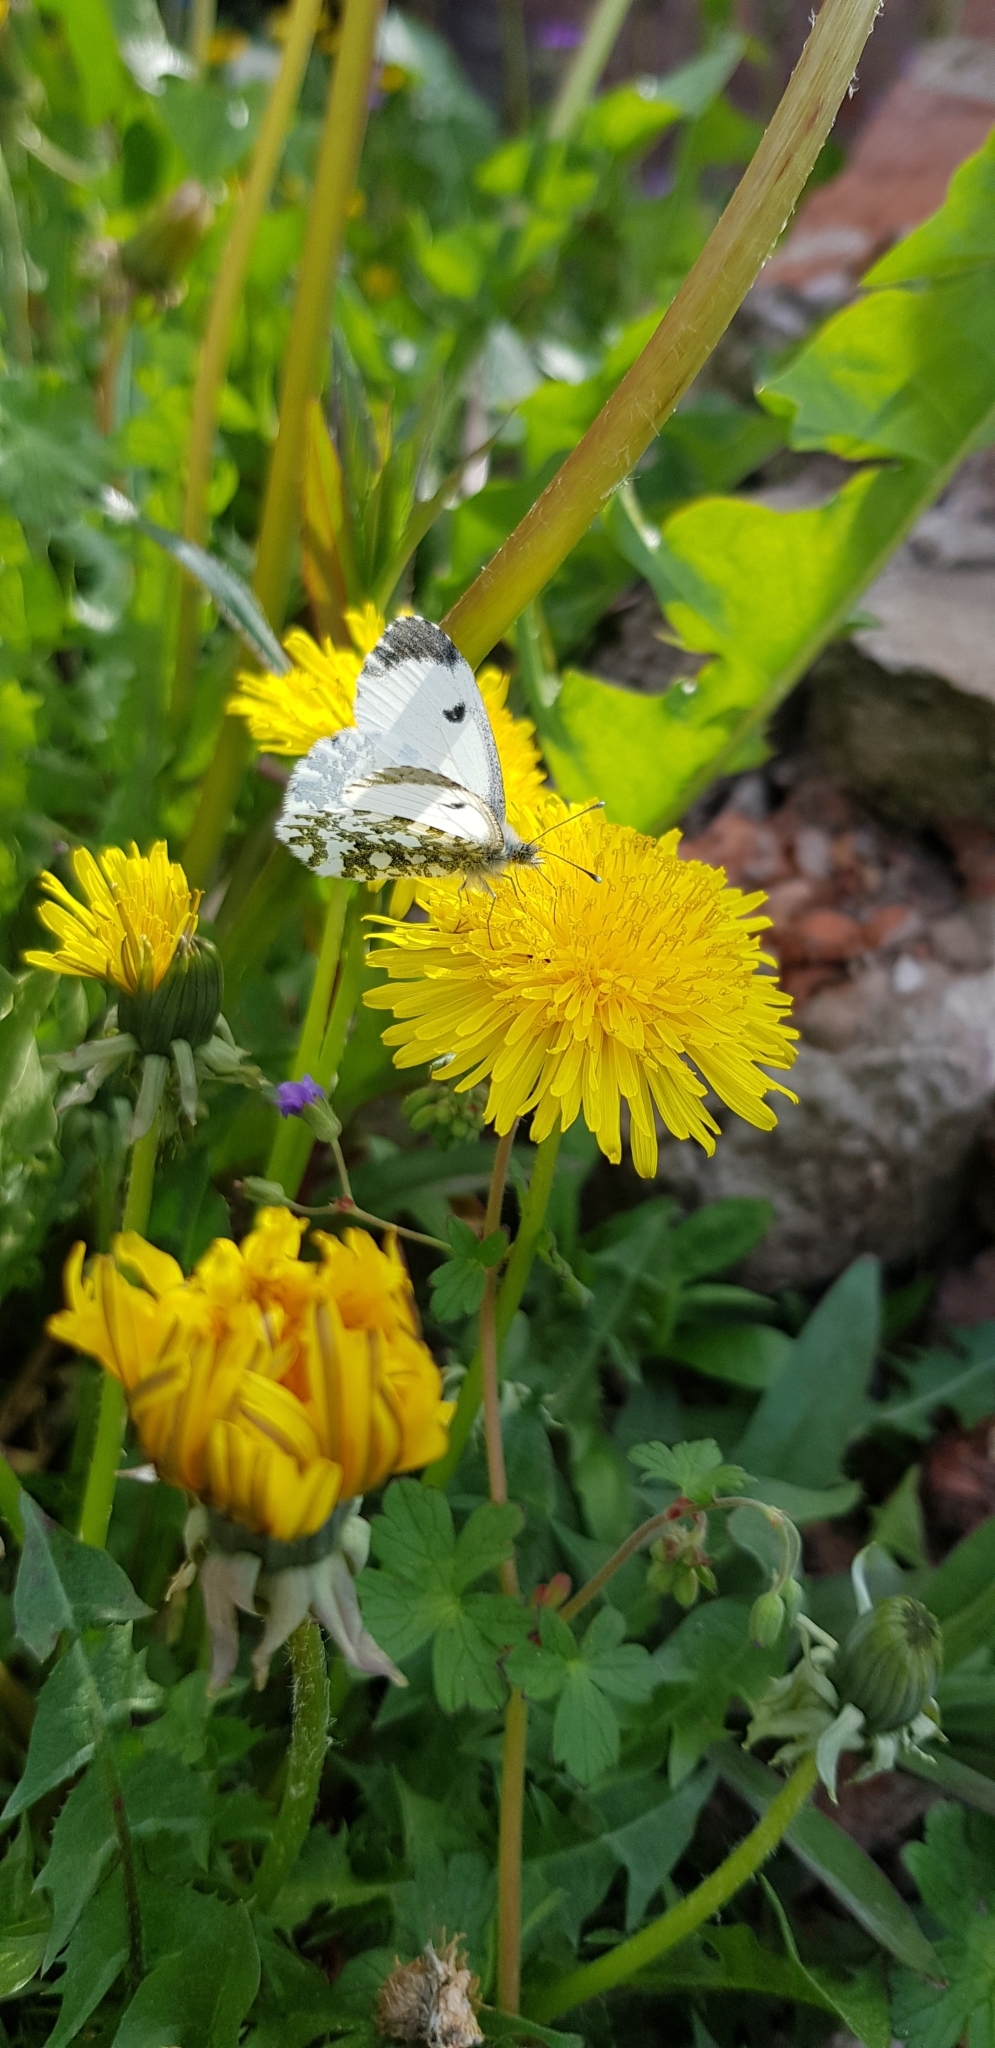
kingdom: Animalia
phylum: Arthropoda
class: Insecta
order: Lepidoptera
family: Pieridae
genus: Anthocharis
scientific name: Anthocharis cardamines
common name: Orange-tip
